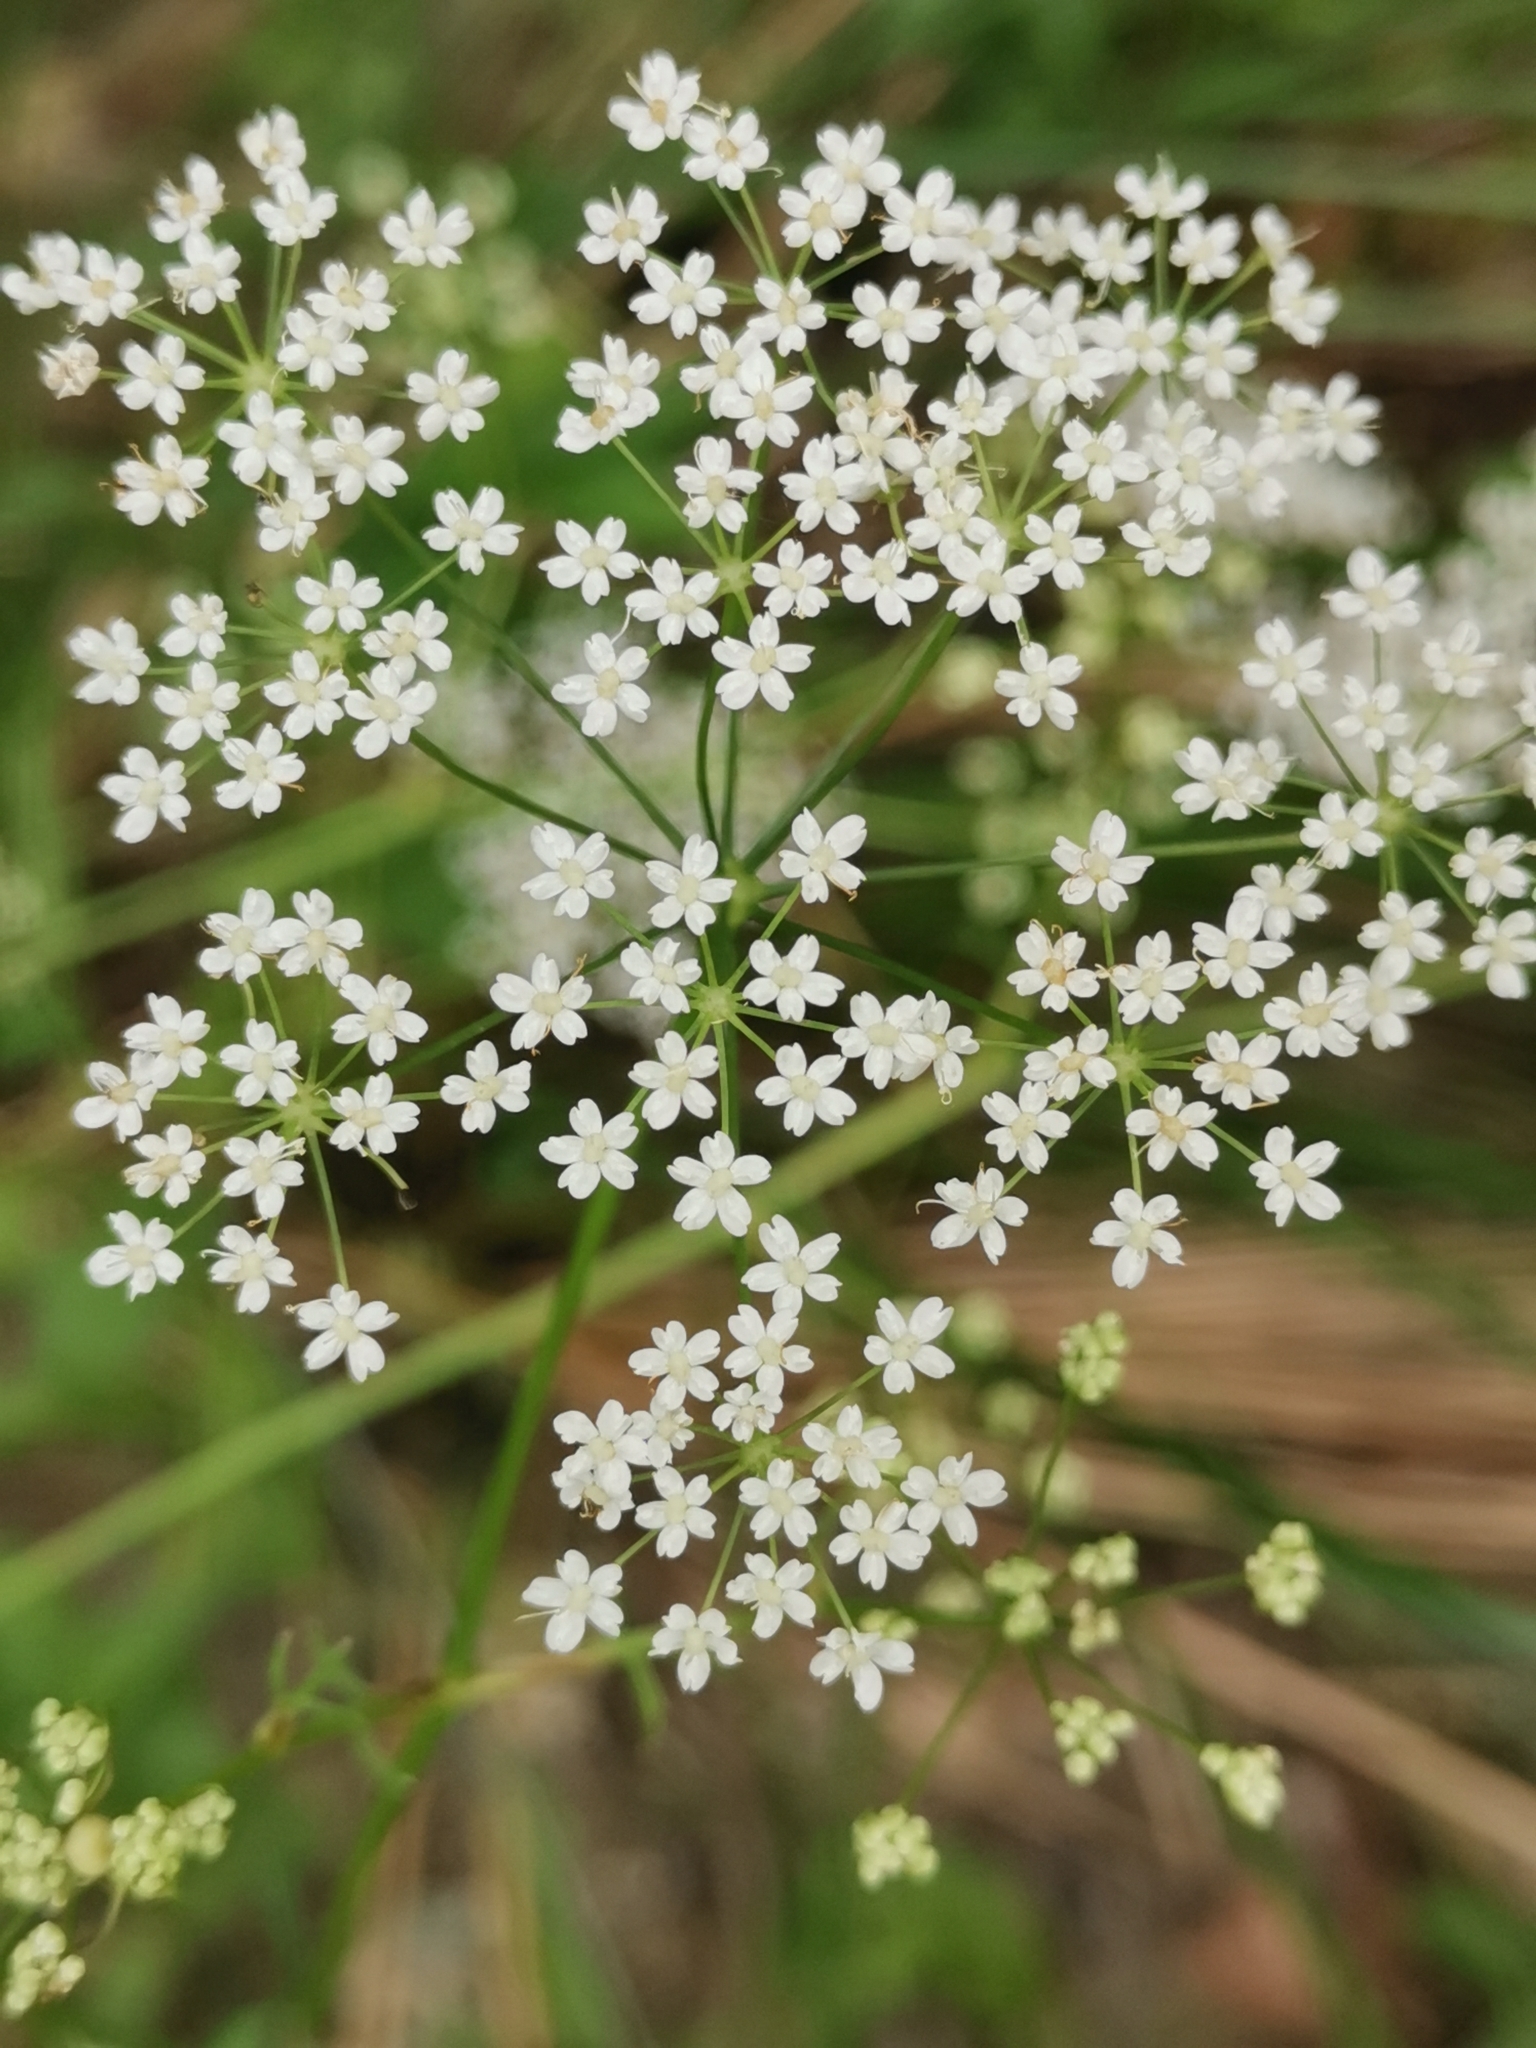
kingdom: Plantae
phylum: Tracheophyta
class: Magnoliopsida
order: Apiales
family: Apiaceae
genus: Pimpinella
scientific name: Pimpinella major
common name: Greater burnet-saxifrage
